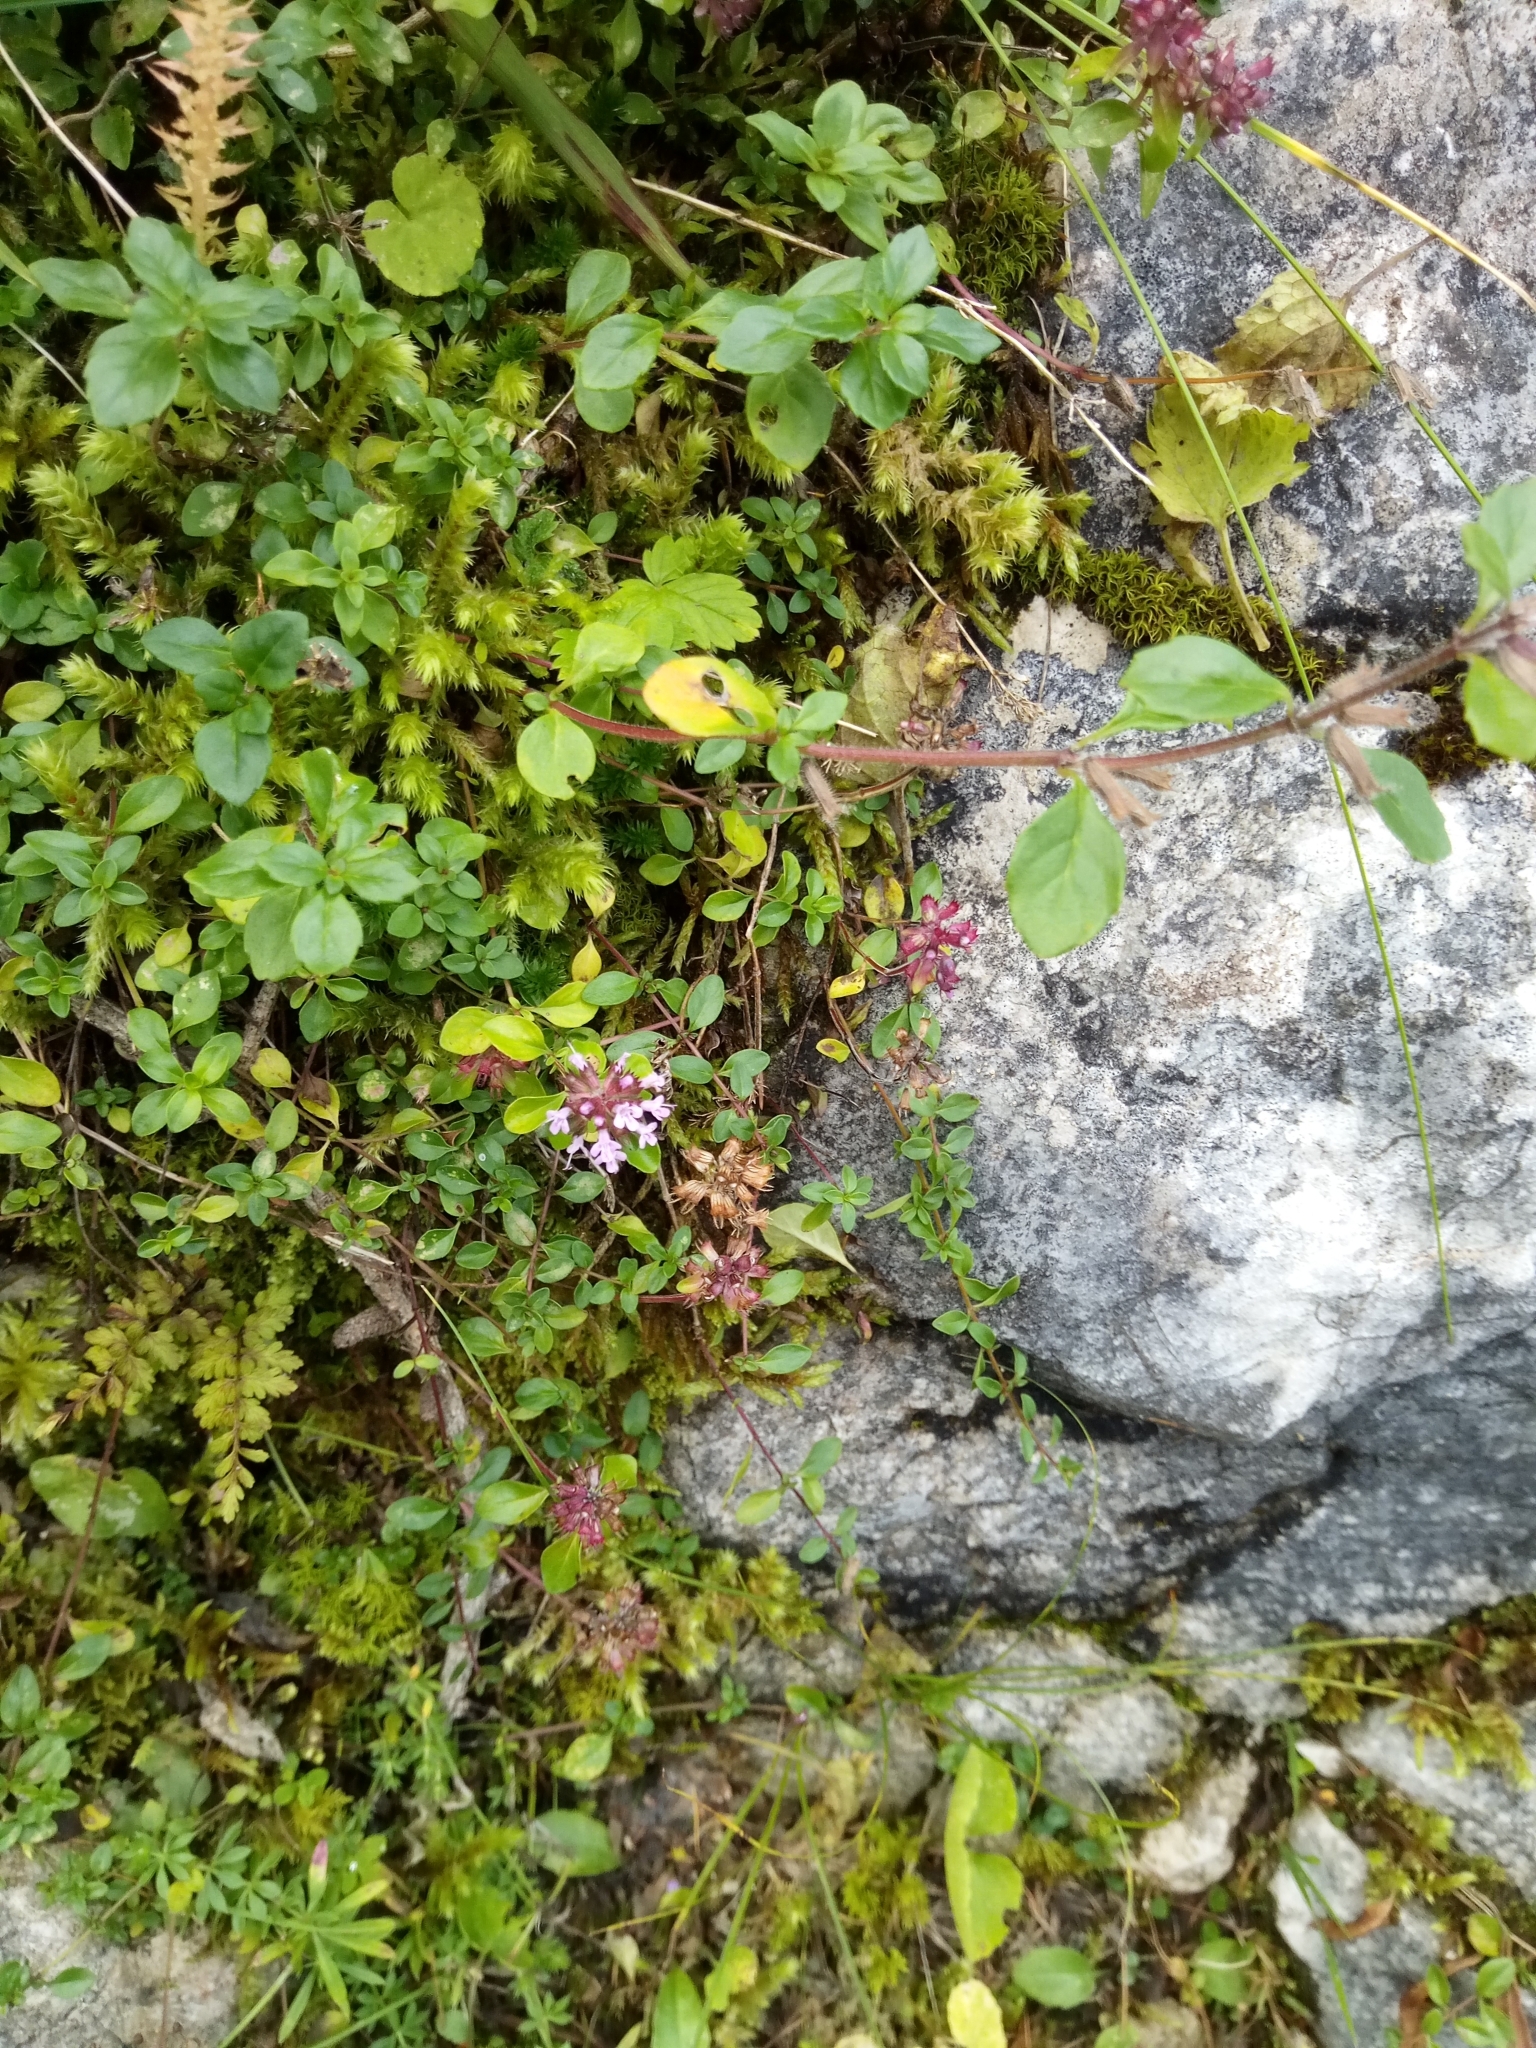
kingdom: Plantae
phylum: Tracheophyta
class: Magnoliopsida
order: Lamiales
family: Lamiaceae
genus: Thymus
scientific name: Thymus pulegioides
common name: Large thyme
